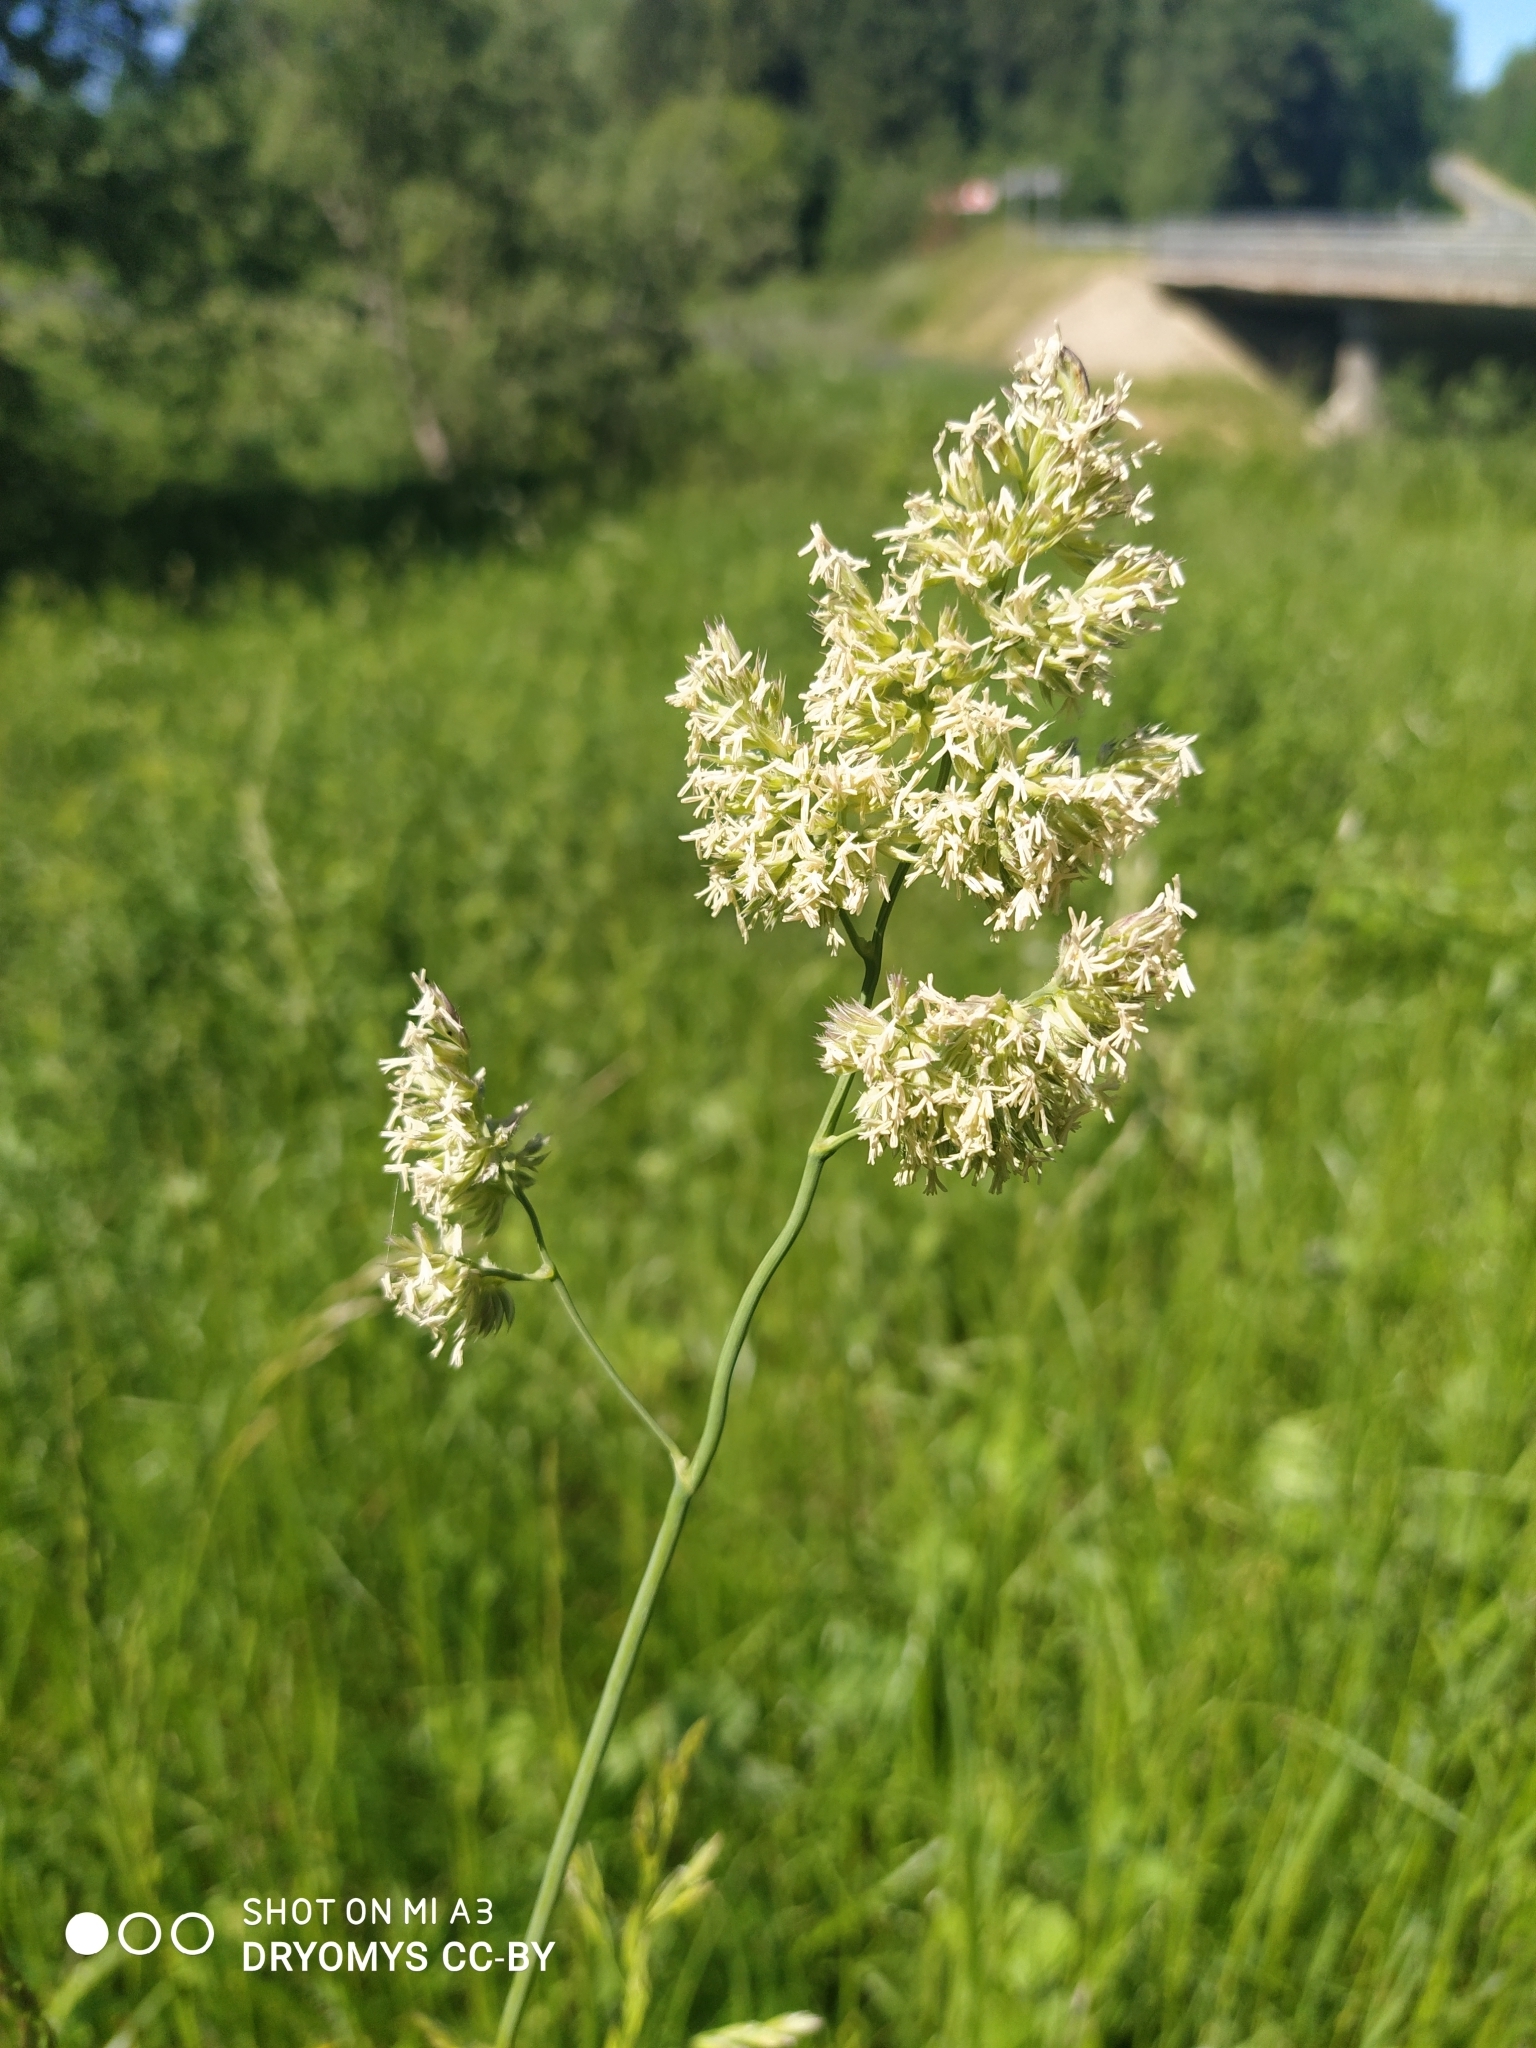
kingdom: Plantae
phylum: Tracheophyta
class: Liliopsida
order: Poales
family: Poaceae
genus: Dactylis
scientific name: Dactylis glomerata
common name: Orchardgrass
